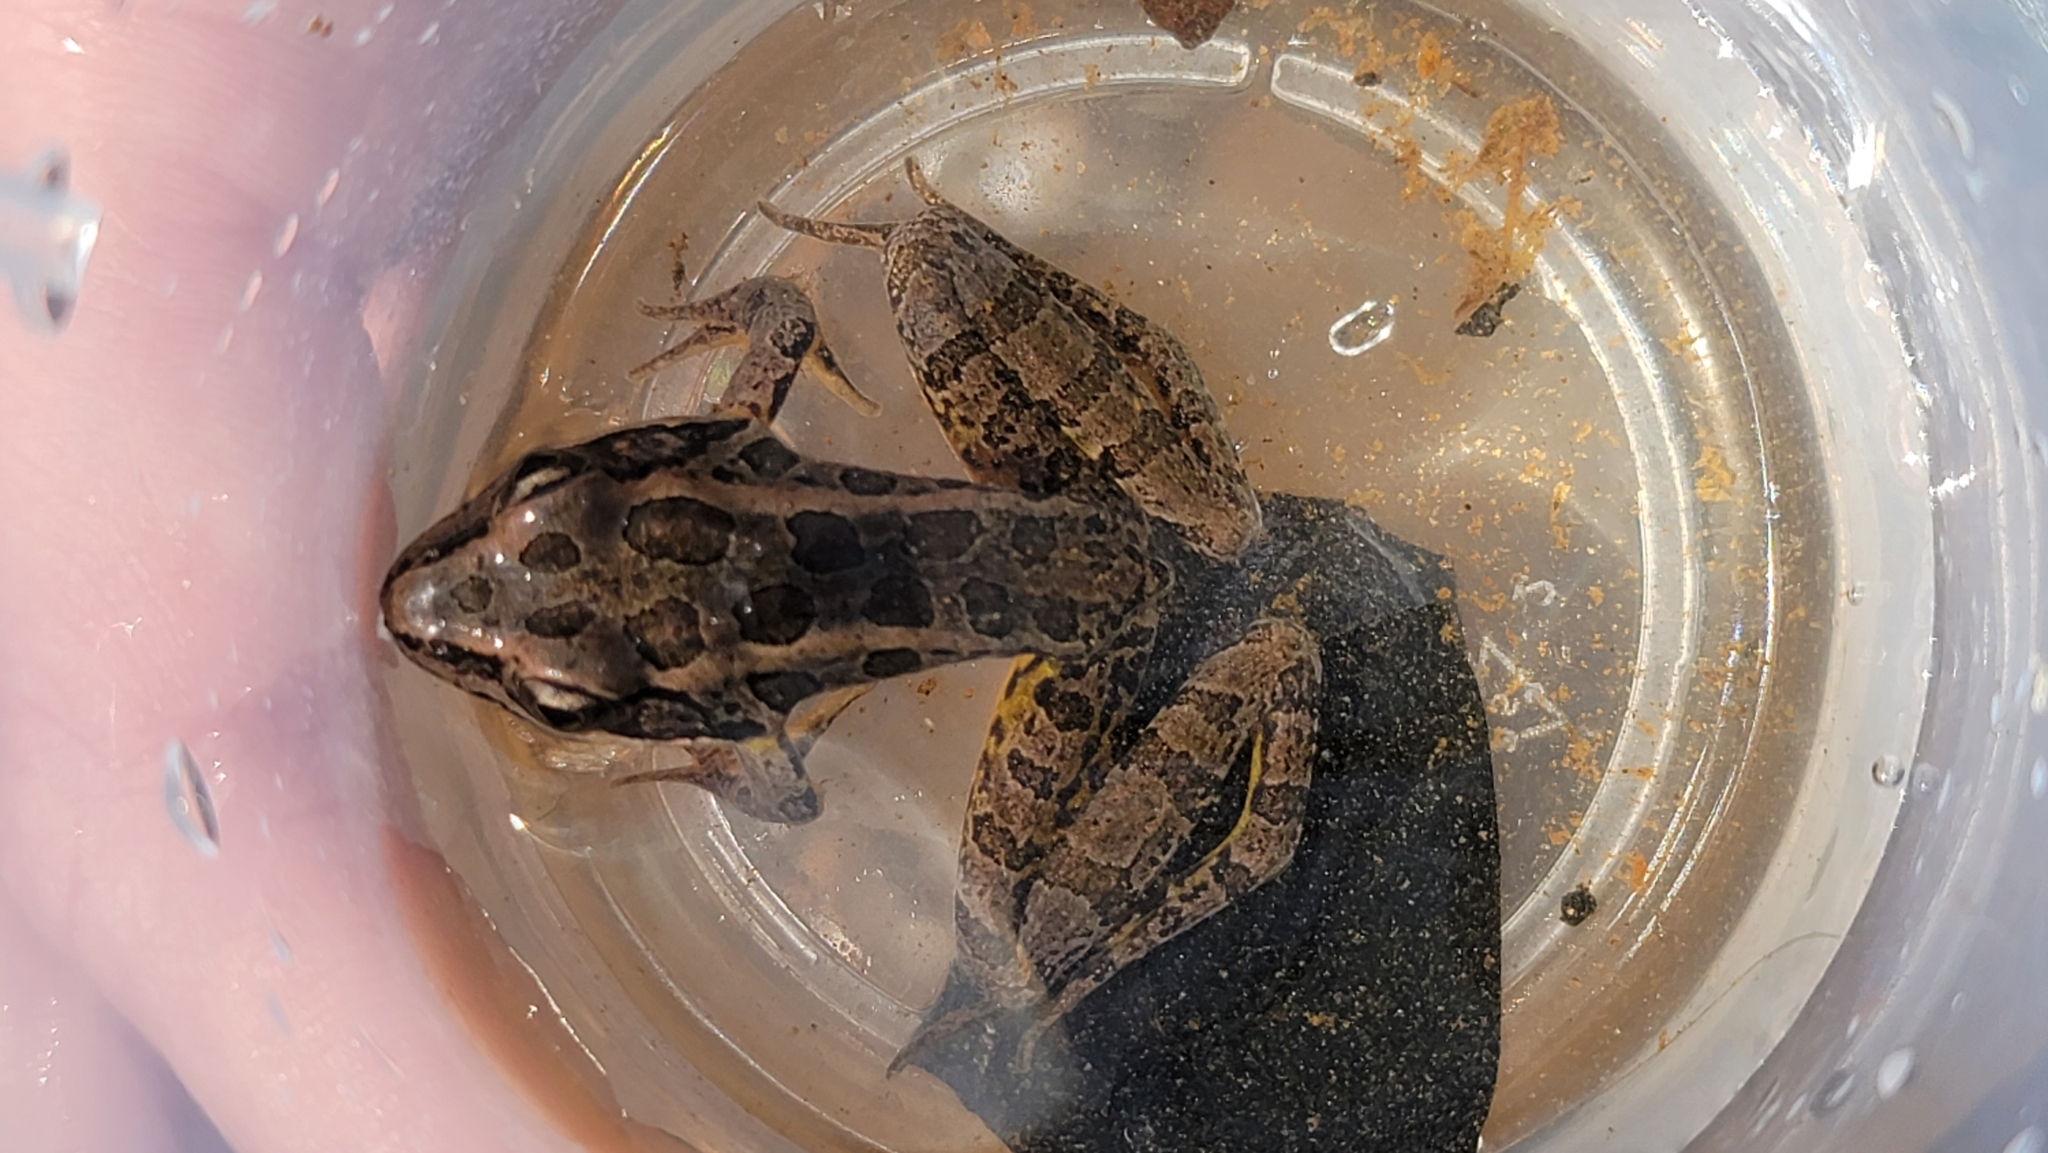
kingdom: Animalia
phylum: Chordata
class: Amphibia
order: Anura
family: Ranidae
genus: Lithobates
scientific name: Lithobates palustris
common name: Pickerel frog
